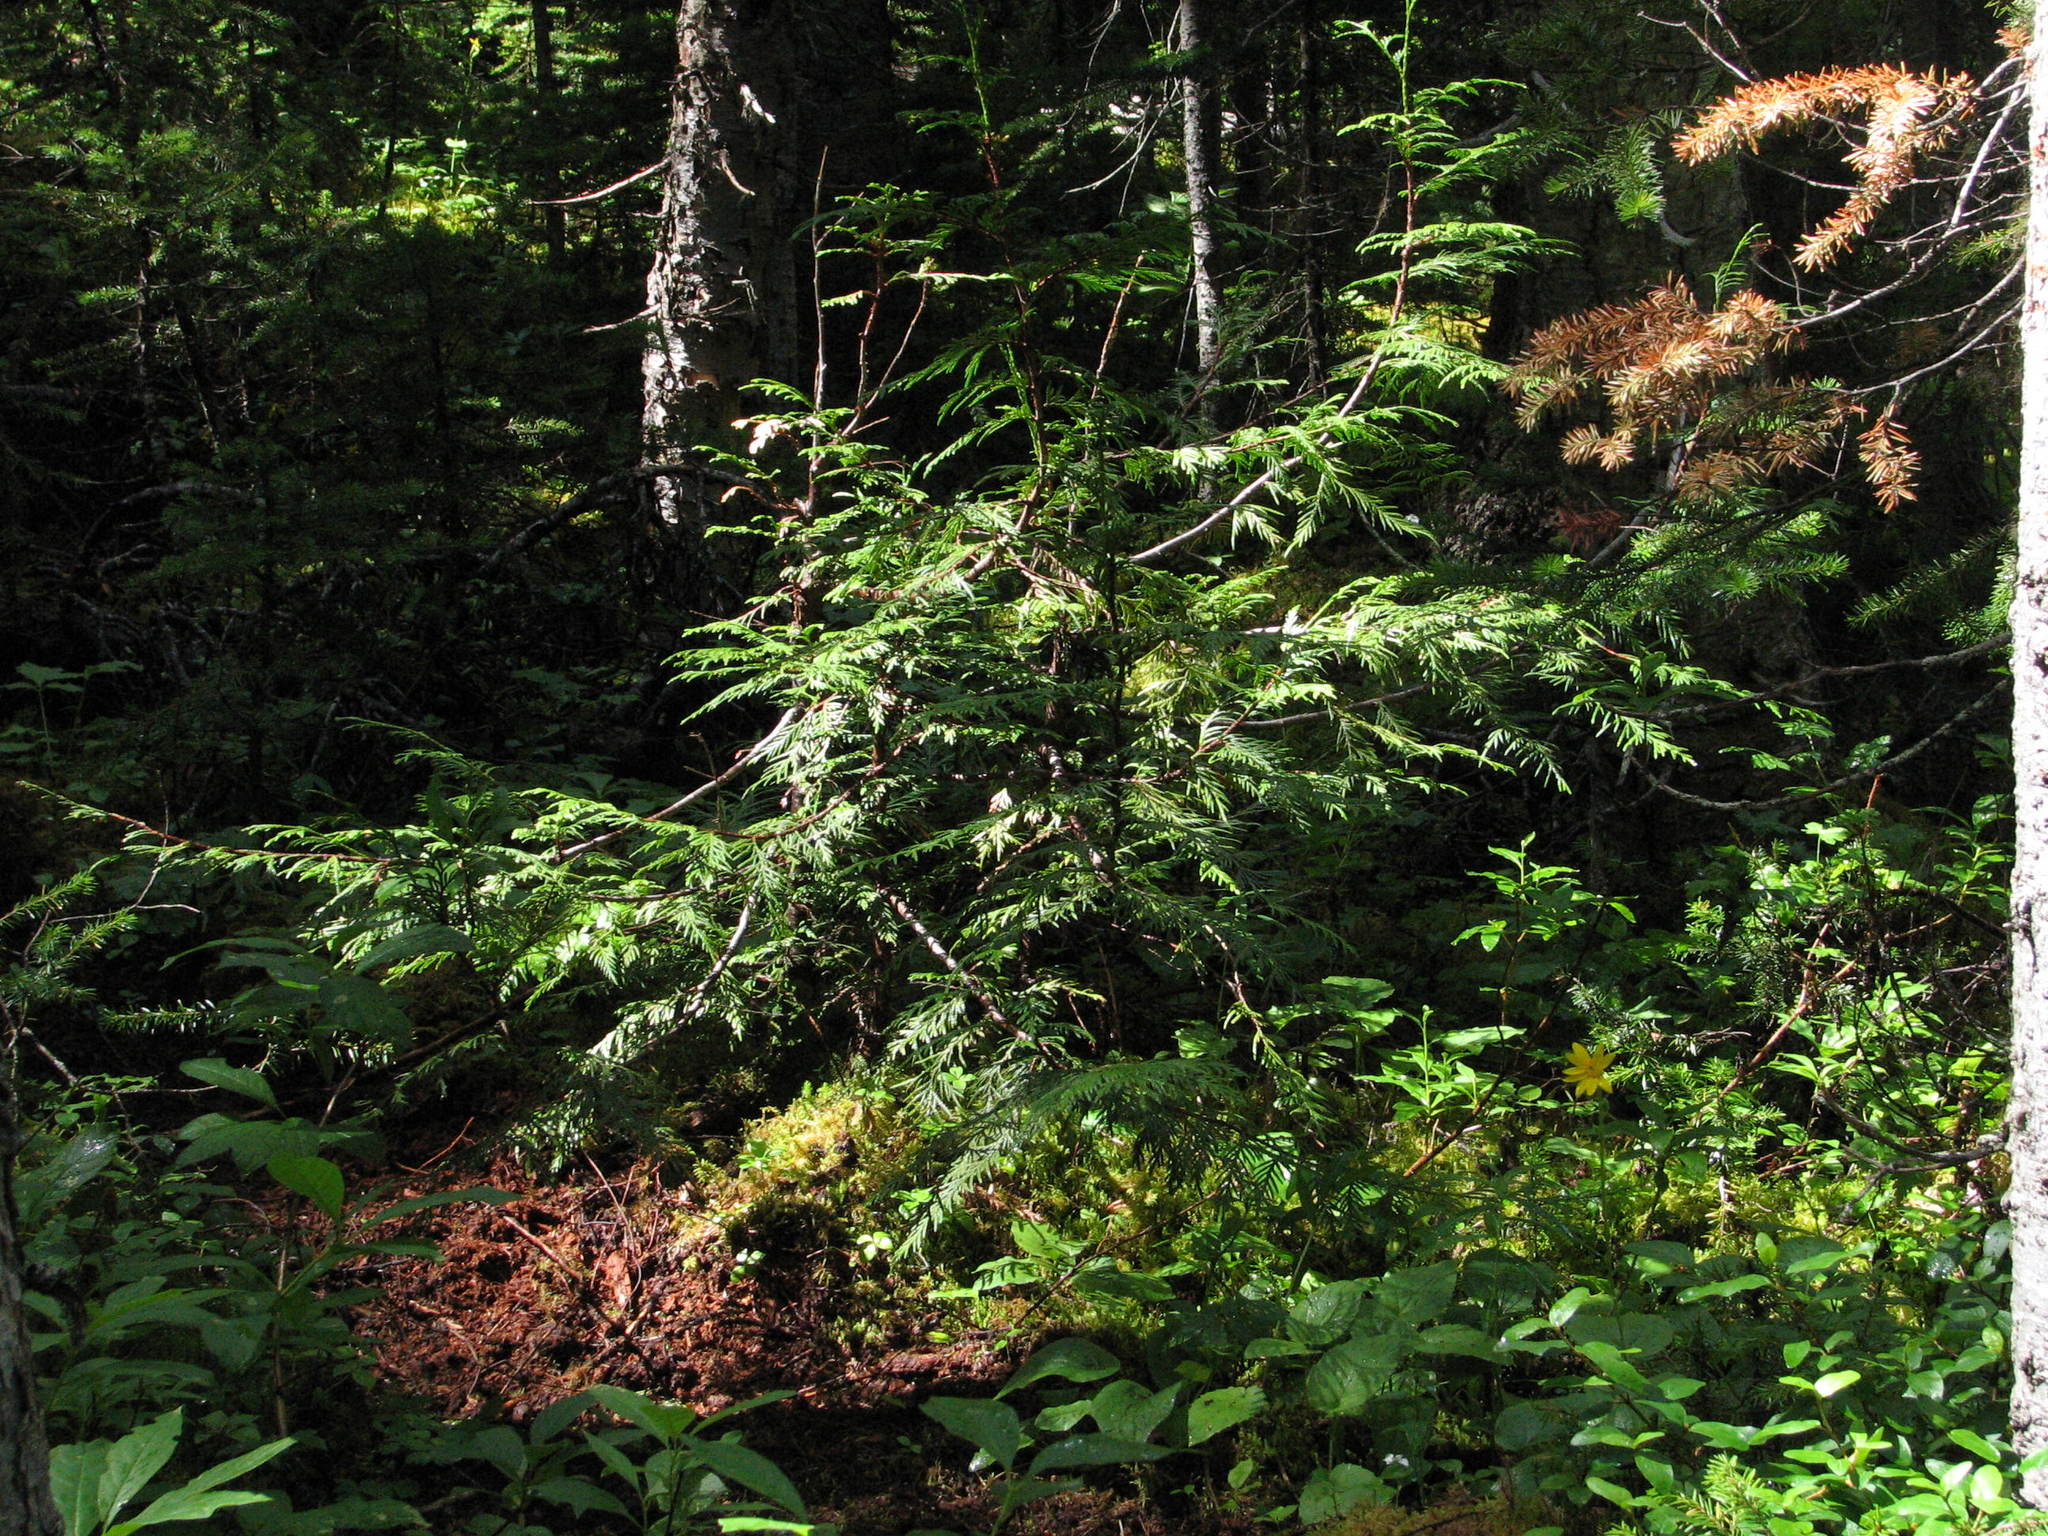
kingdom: Plantae
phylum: Tracheophyta
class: Pinopsida
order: Pinales
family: Cupressaceae
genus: Thuja
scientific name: Thuja plicata
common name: Western red-cedar
